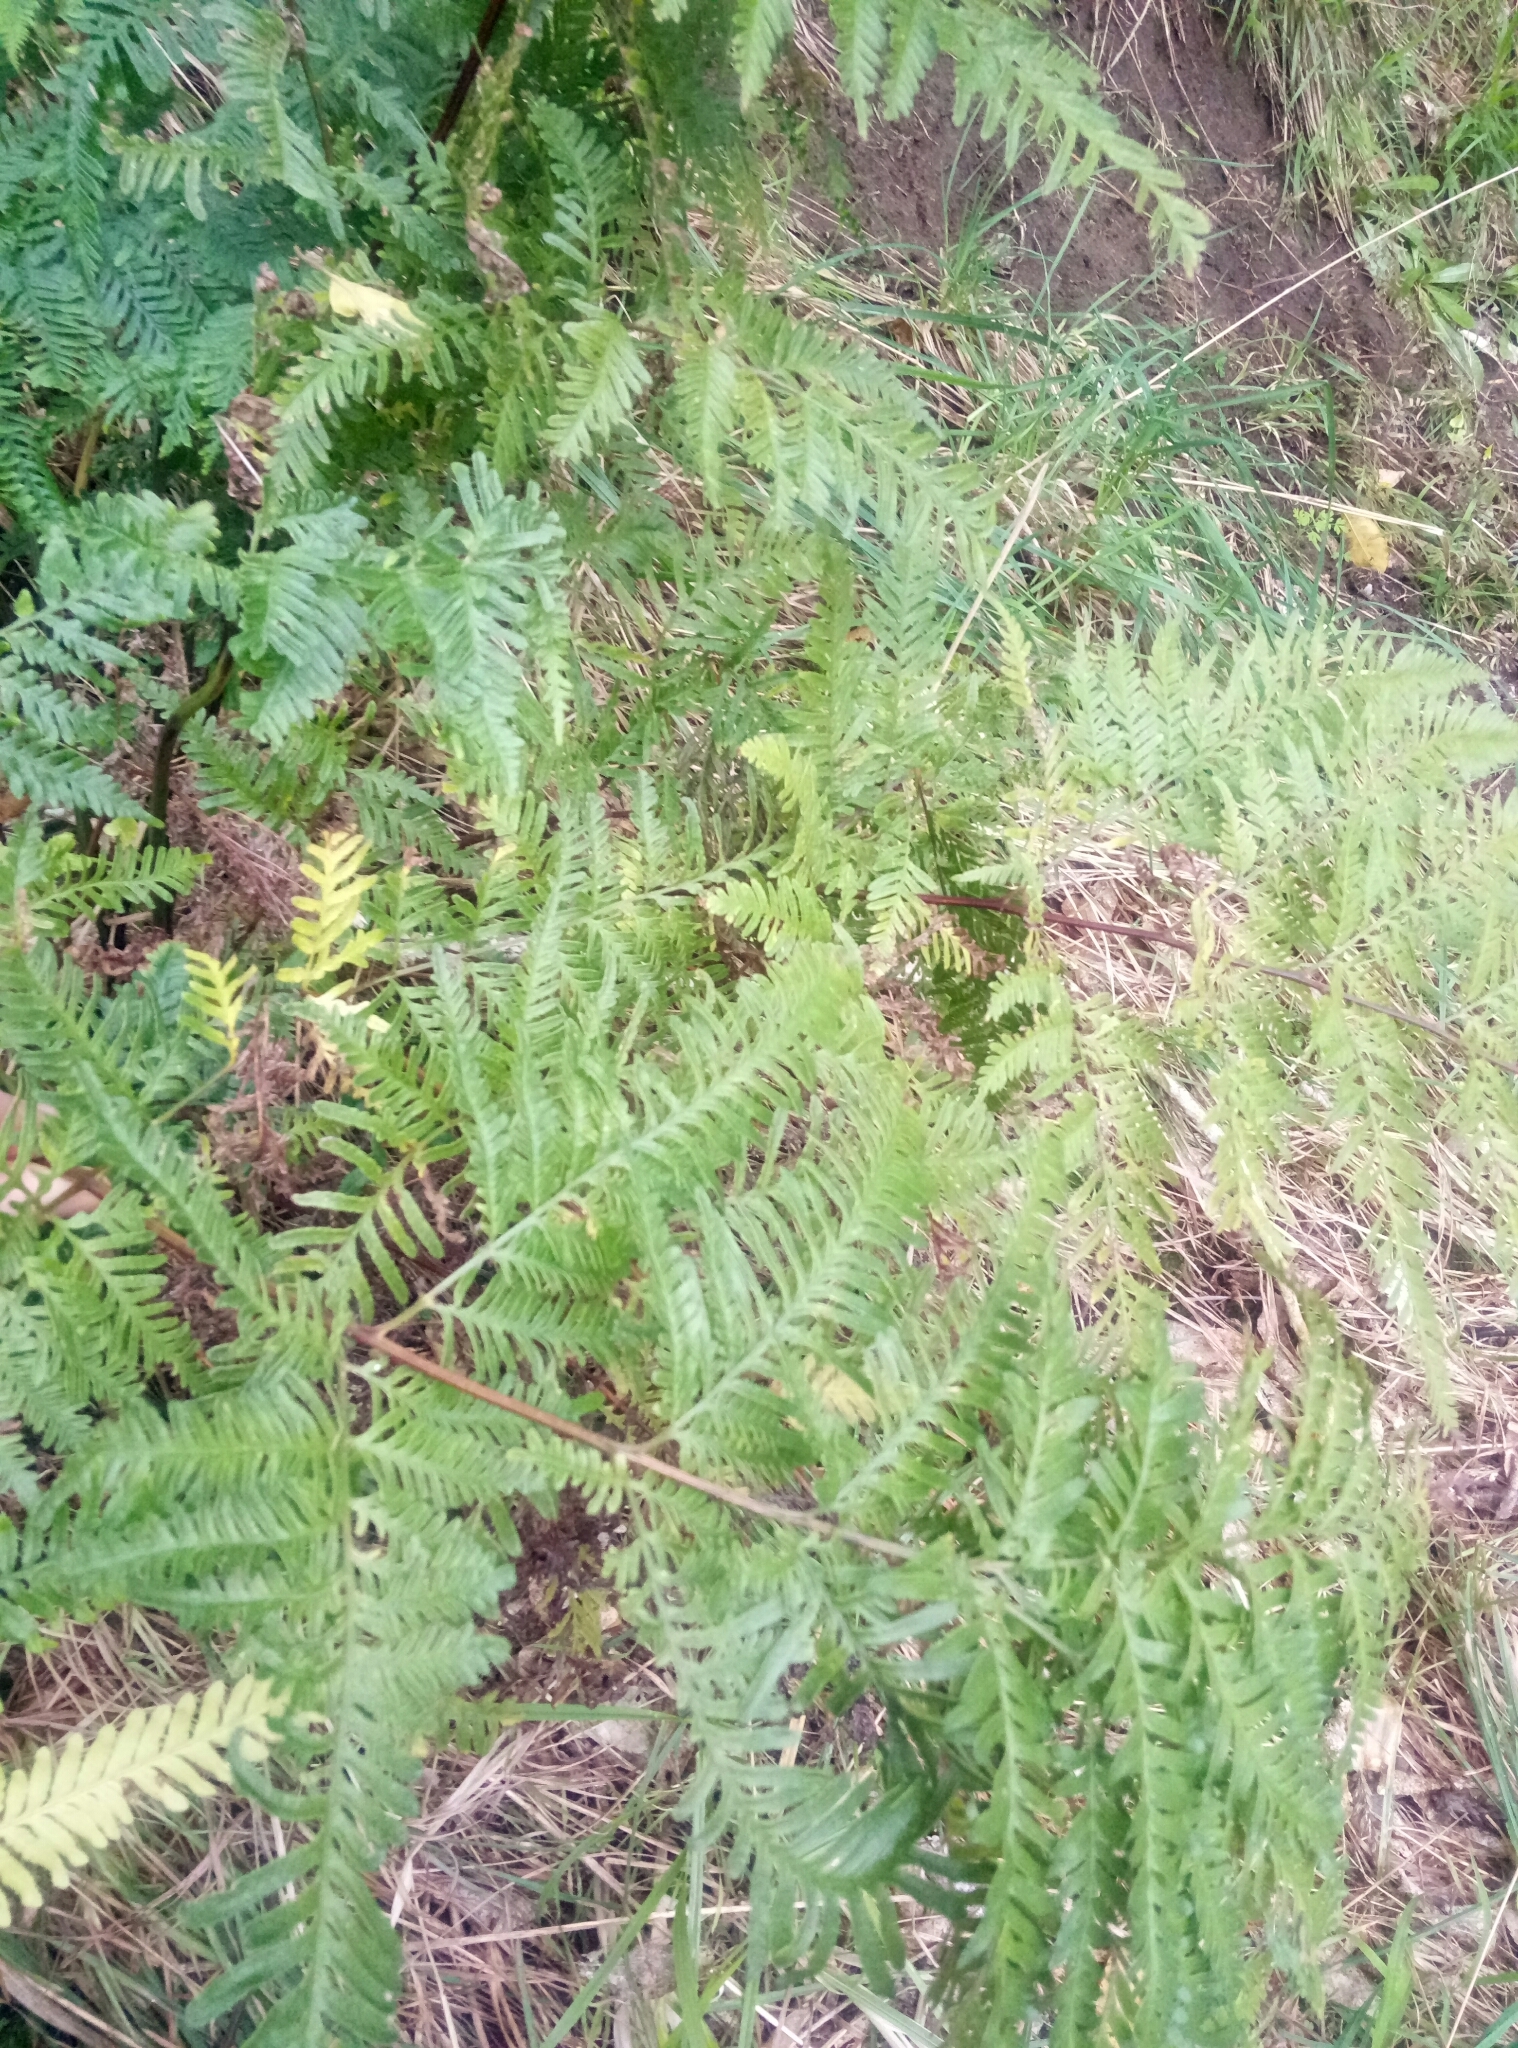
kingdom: Plantae
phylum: Tracheophyta
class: Polypodiopsida
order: Polypodiales
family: Pteridaceae
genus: Pteris
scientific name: Pteris tremula
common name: Australian brake
